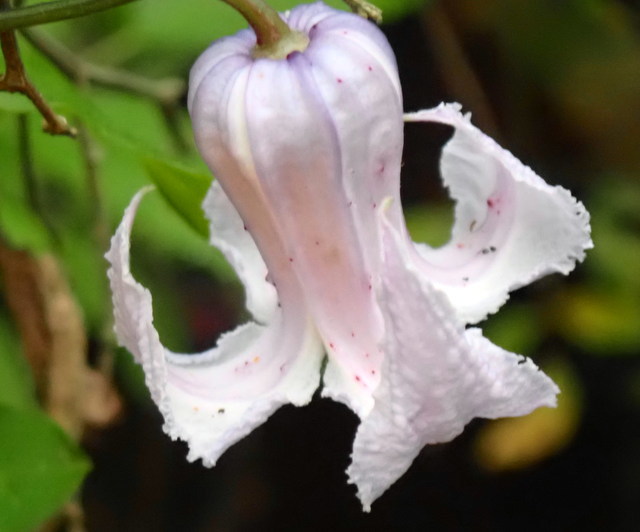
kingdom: Plantae
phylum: Tracheophyta
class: Magnoliopsida
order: Ranunculales
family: Ranunculaceae
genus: Clematis
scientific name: Clematis crispa
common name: Curly clematis
